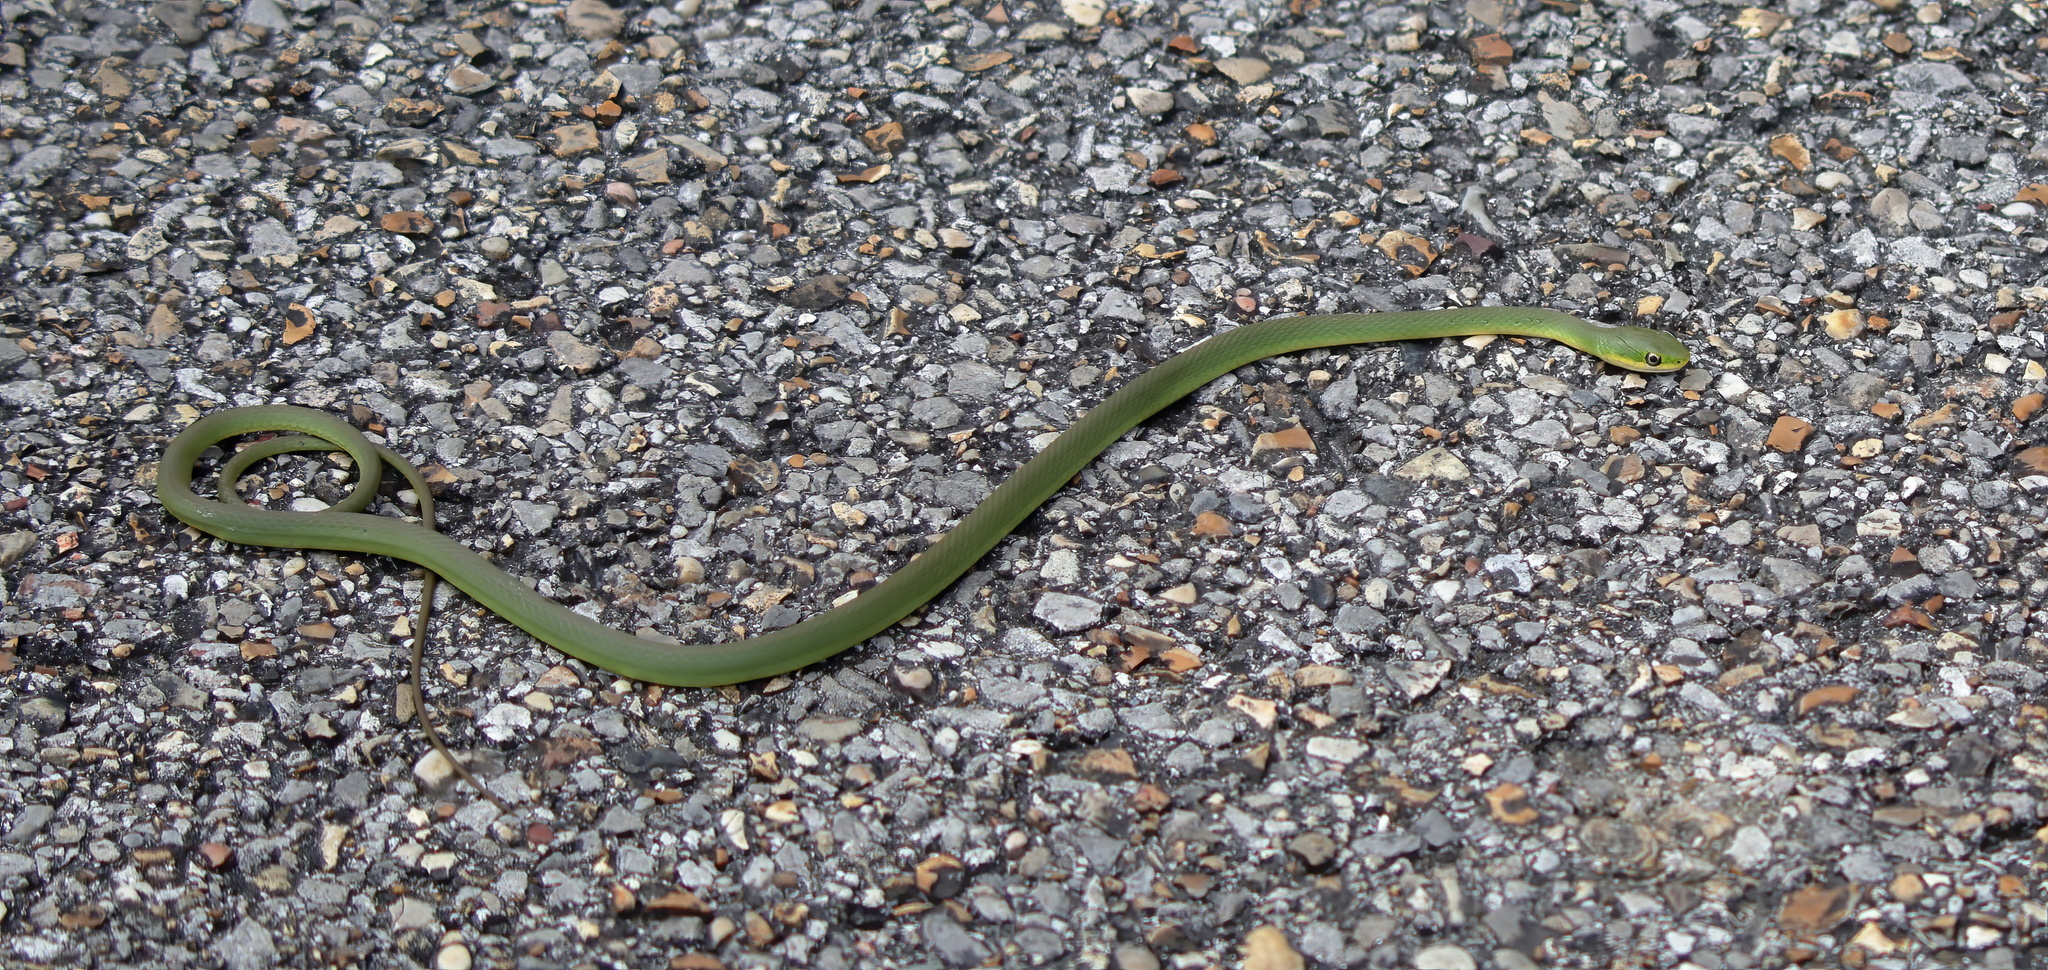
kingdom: Animalia
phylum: Chordata
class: Squamata
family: Colubridae
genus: Opheodrys
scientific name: Opheodrys aestivus
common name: Rough greensnake
